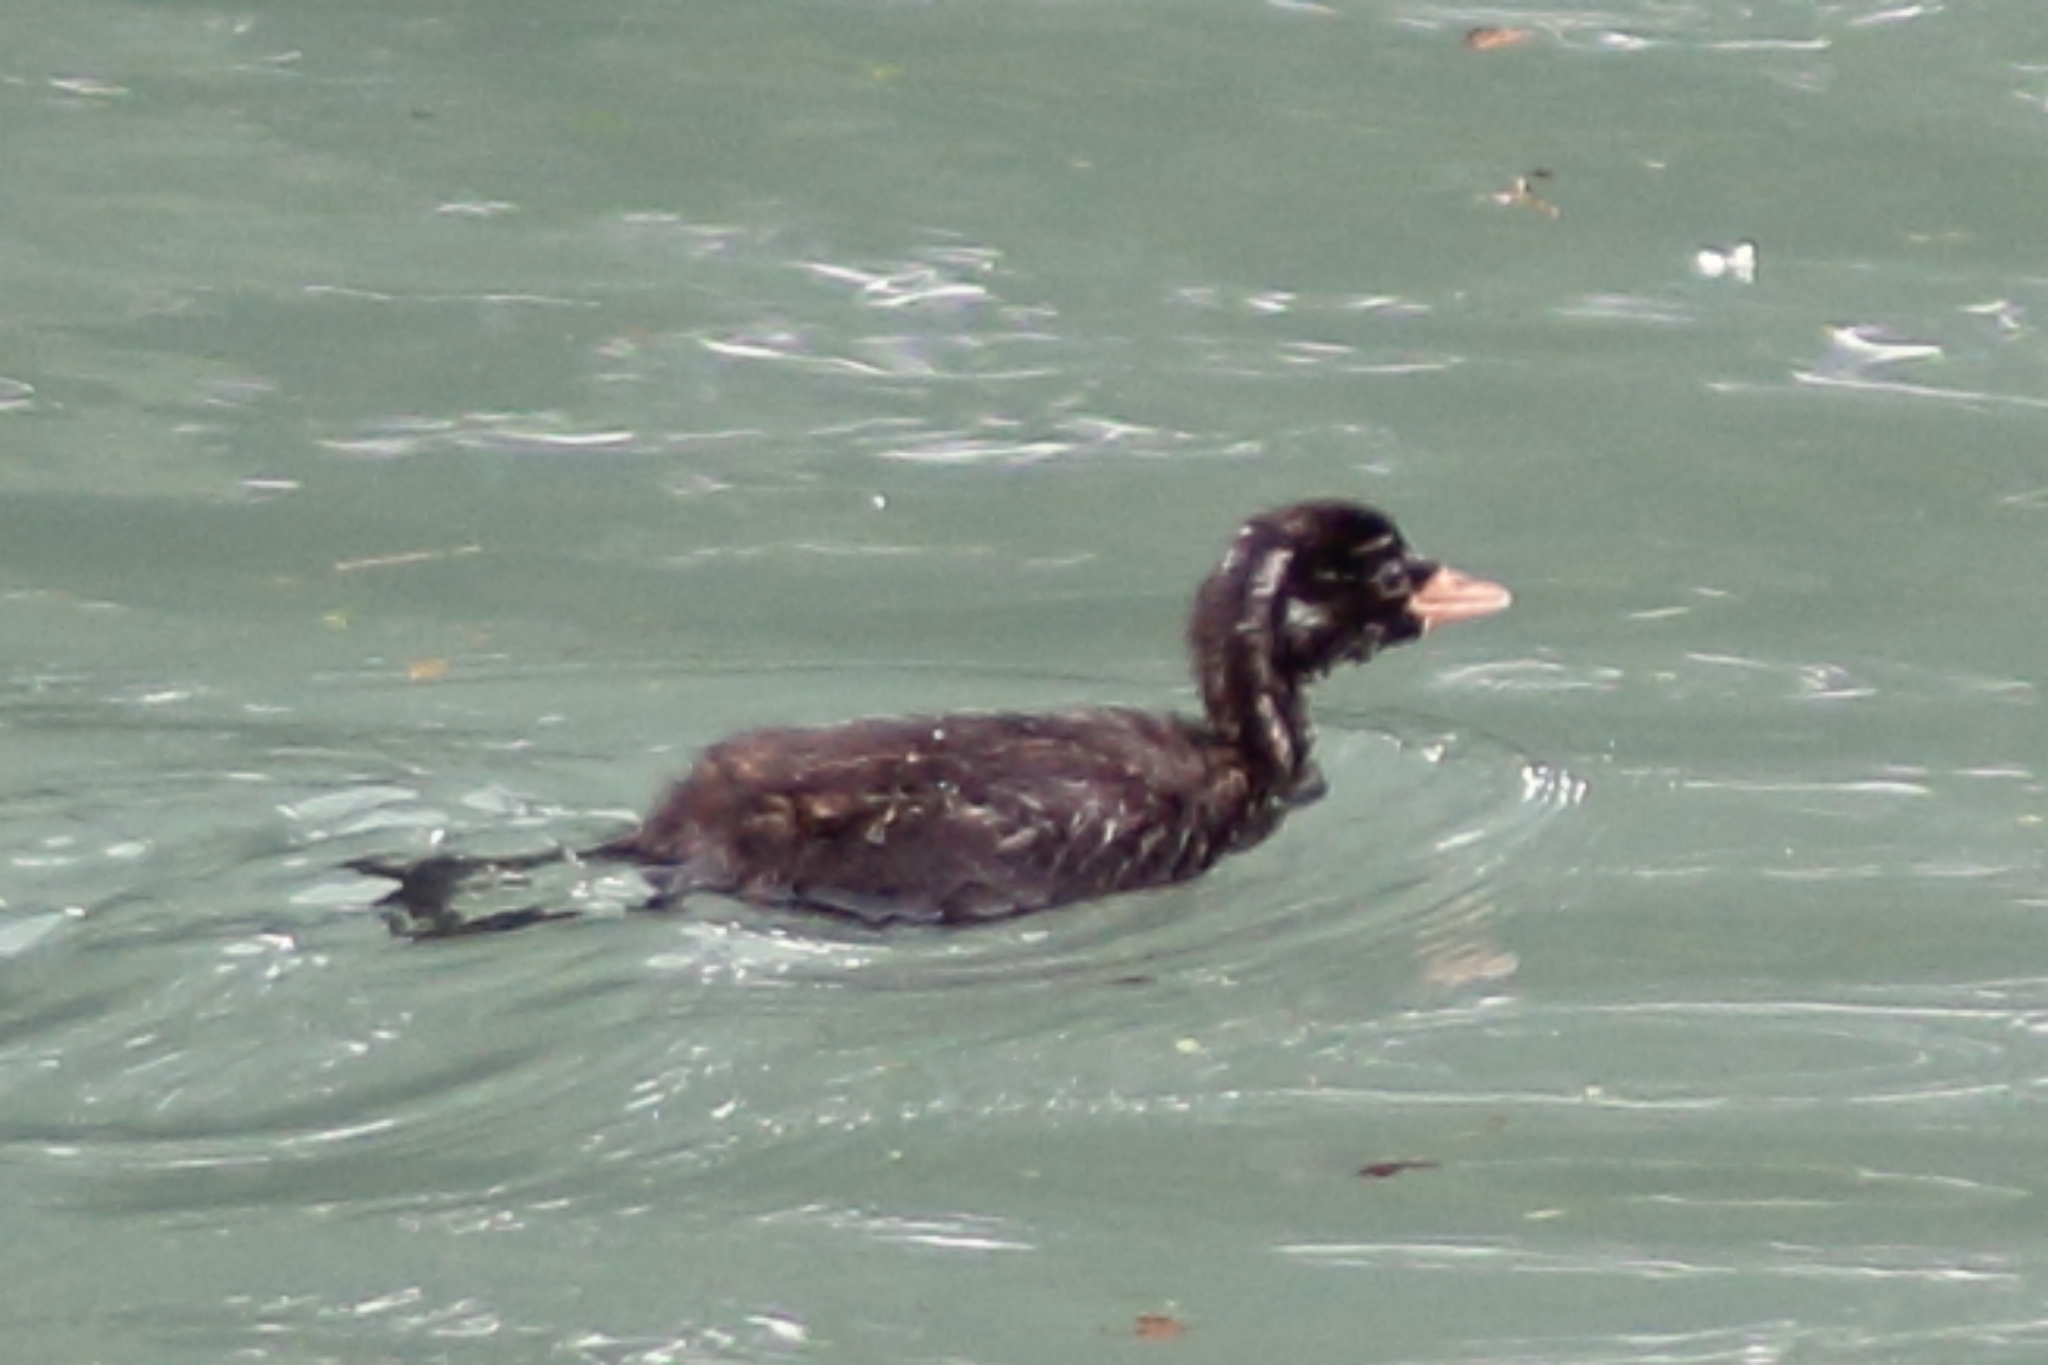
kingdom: Animalia
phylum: Chordata
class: Aves
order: Podicipediformes
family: Podicipedidae
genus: Tachybaptus
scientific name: Tachybaptus ruficollis
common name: Little grebe
